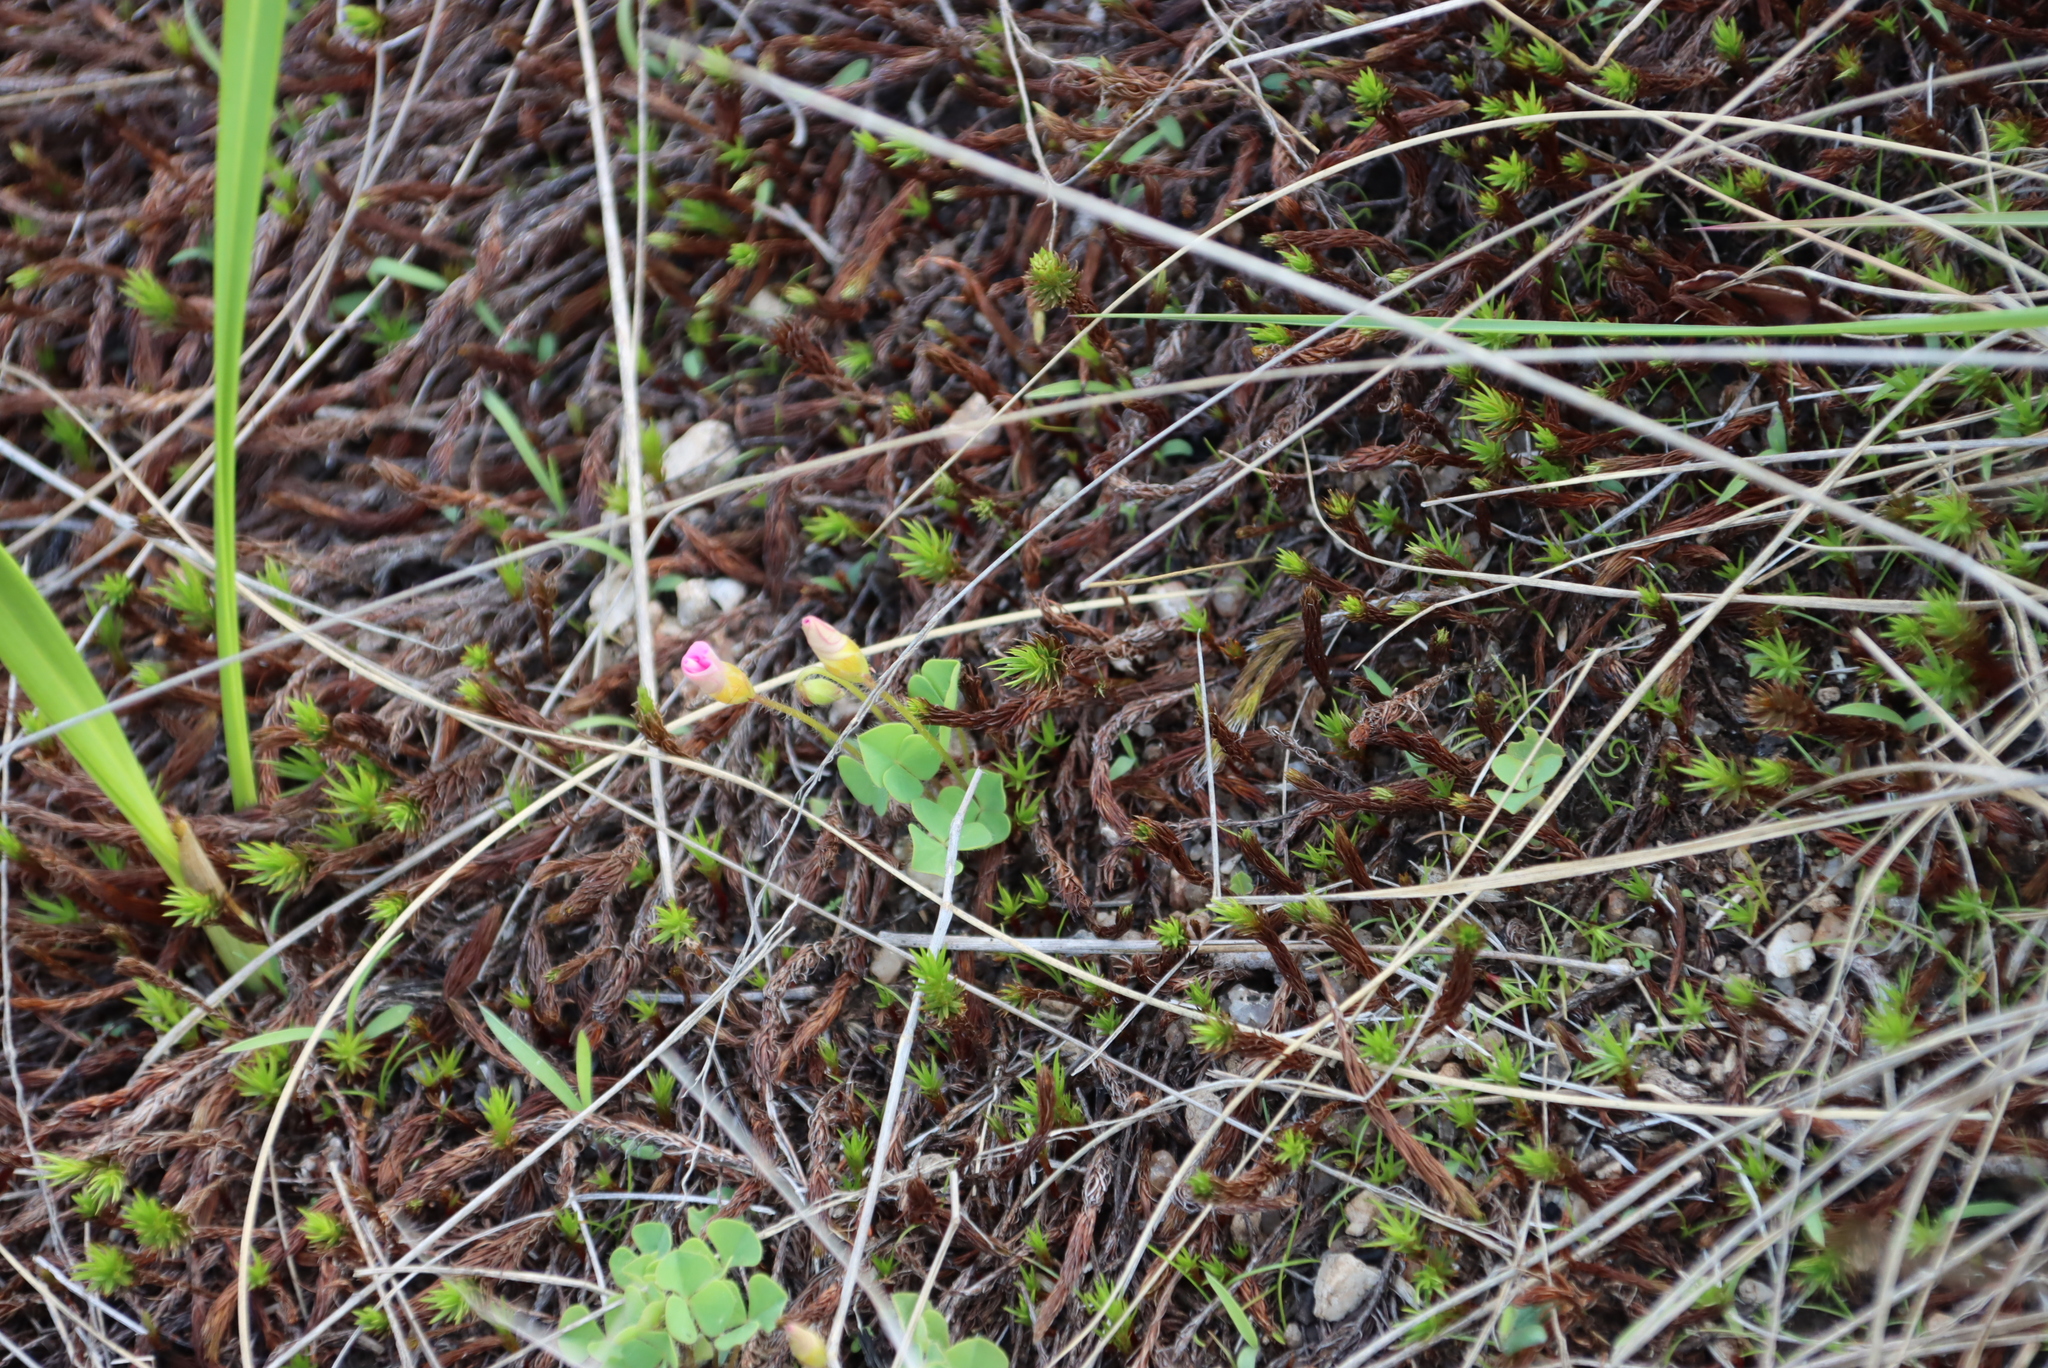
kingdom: Plantae
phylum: Tracheophyta
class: Magnoliopsida
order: Oxalidales
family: Oxalidaceae
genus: Oxalis
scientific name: Oxalis obliquifolia
